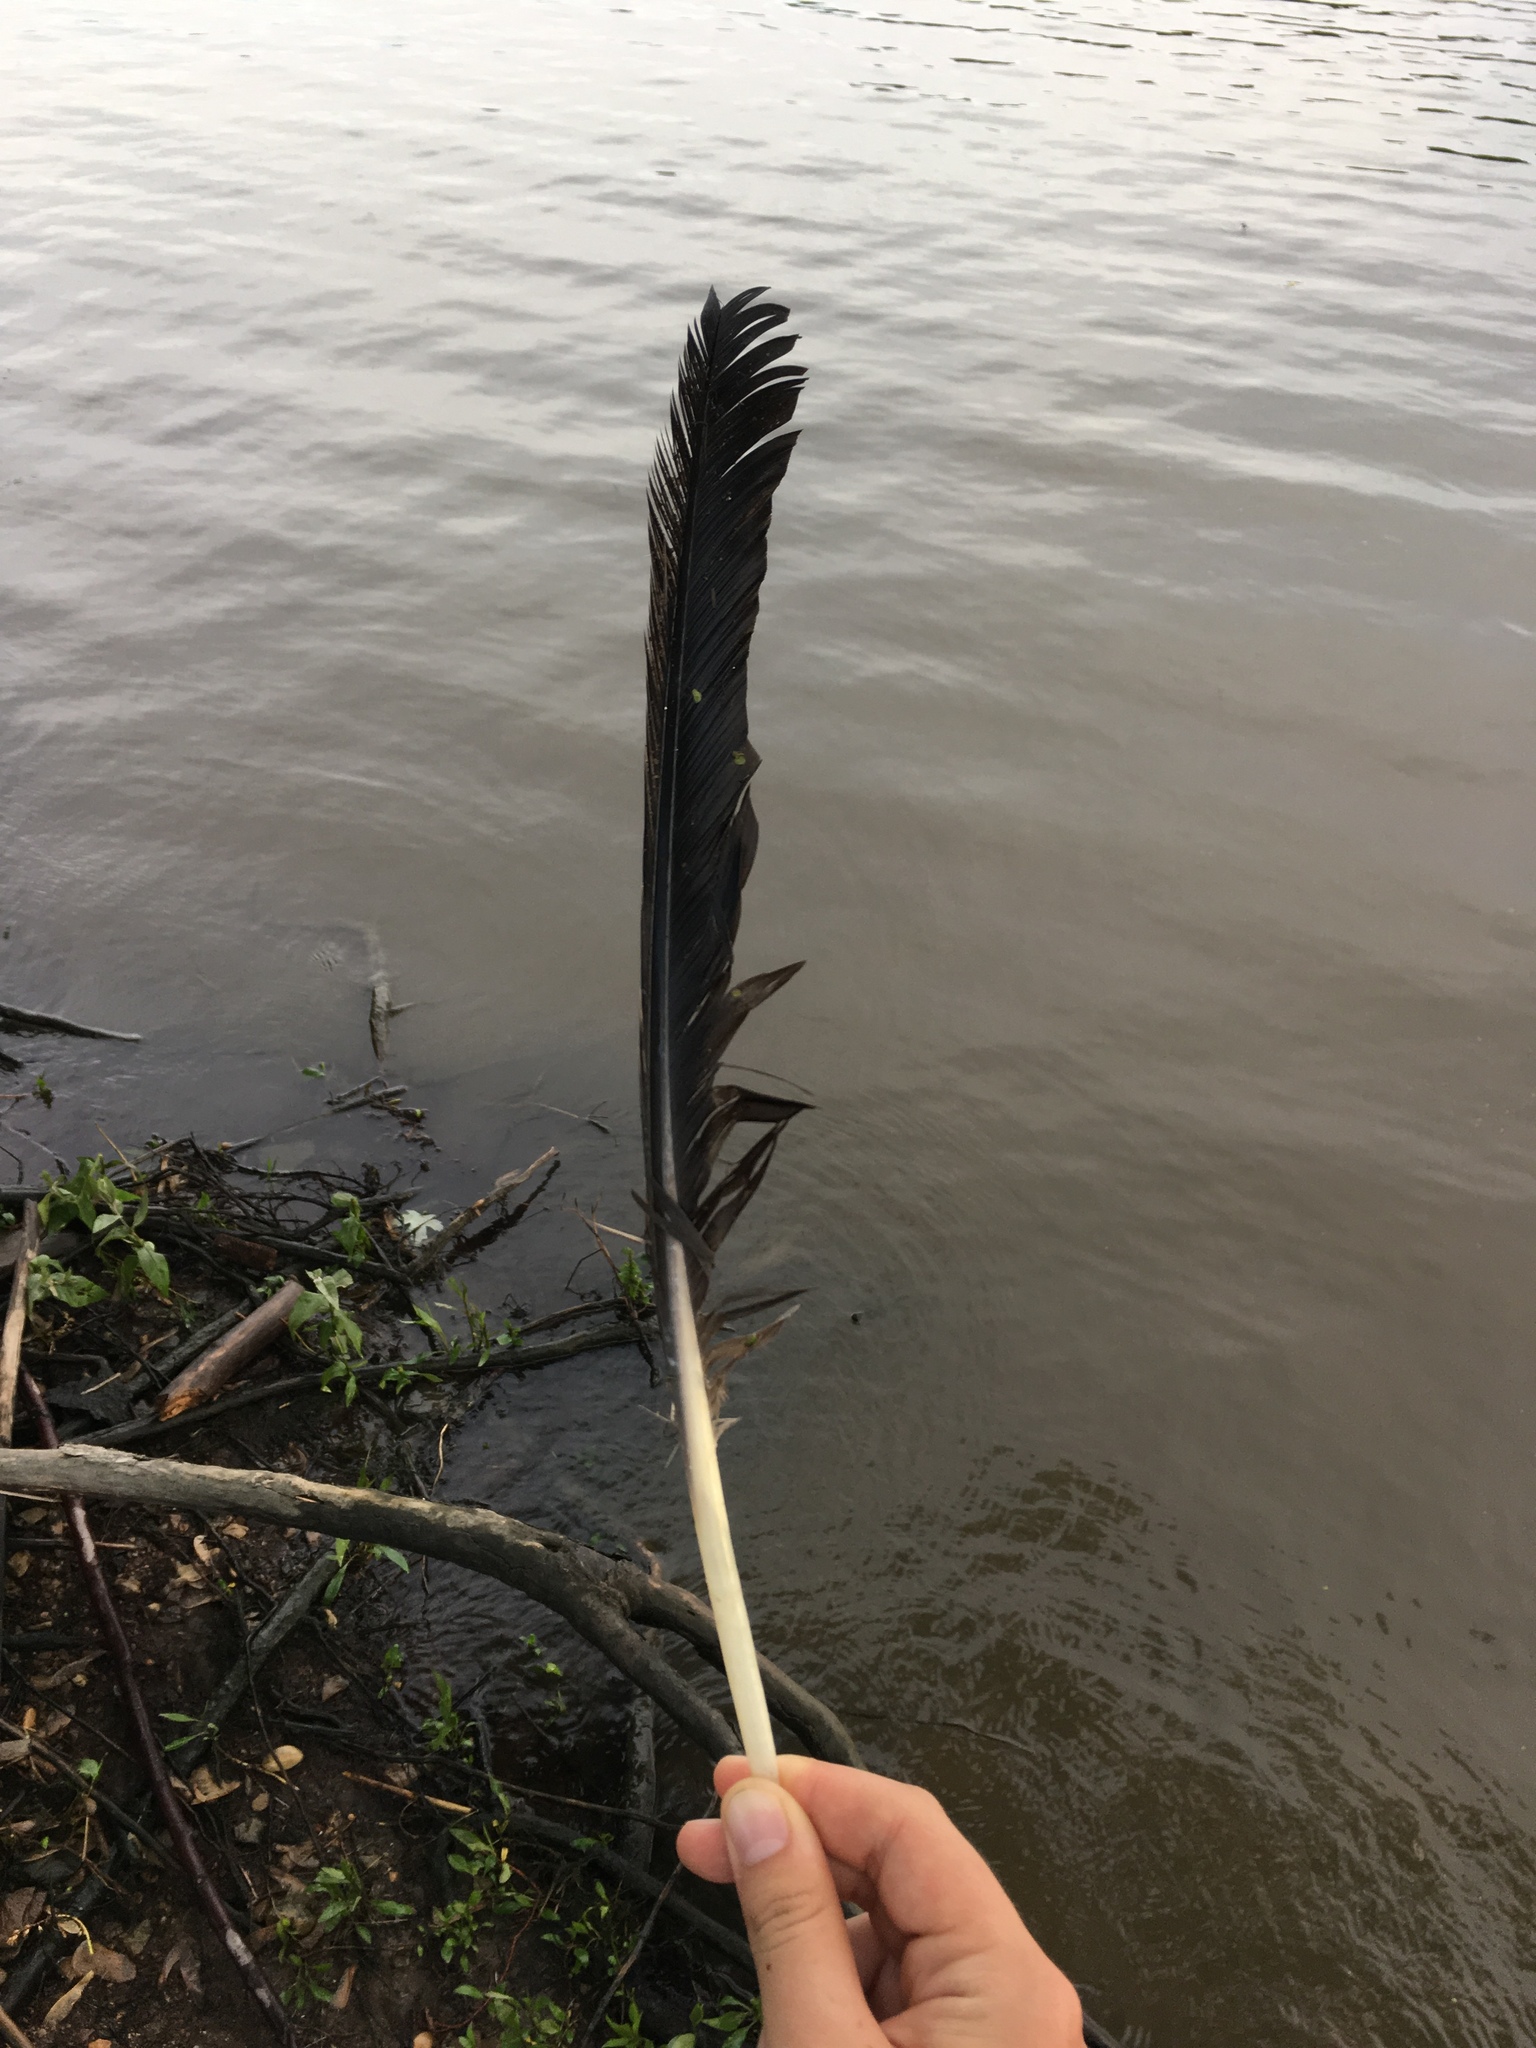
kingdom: Animalia
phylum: Chordata
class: Aves
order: Anseriformes
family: Anatidae
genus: Branta
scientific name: Branta canadensis
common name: Canada goose
